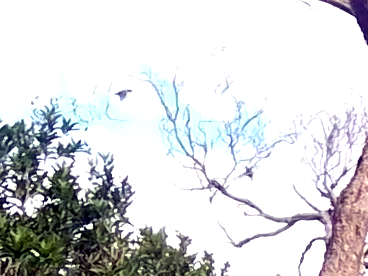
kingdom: Animalia
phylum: Chordata
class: Aves
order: Passeriformes
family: Sturnidae
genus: Sturnus
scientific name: Sturnus vulgaris
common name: Common starling
